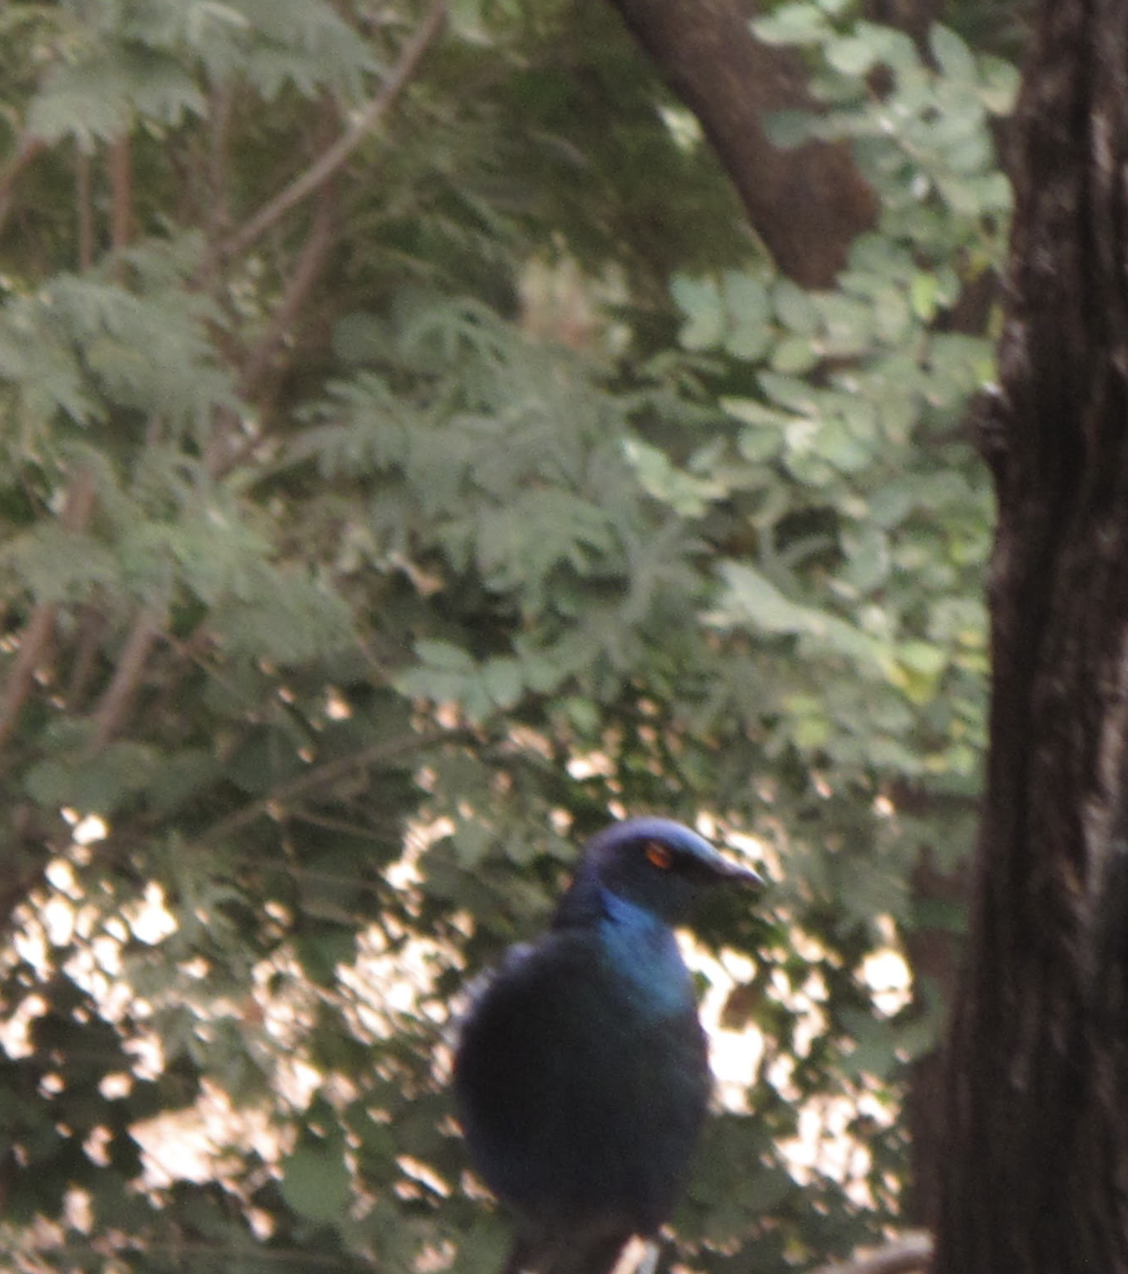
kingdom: Animalia
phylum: Chordata
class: Aves
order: Passeriformes
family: Sturnidae
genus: Lamprotornis
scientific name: Lamprotornis nitens
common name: Cape starling
